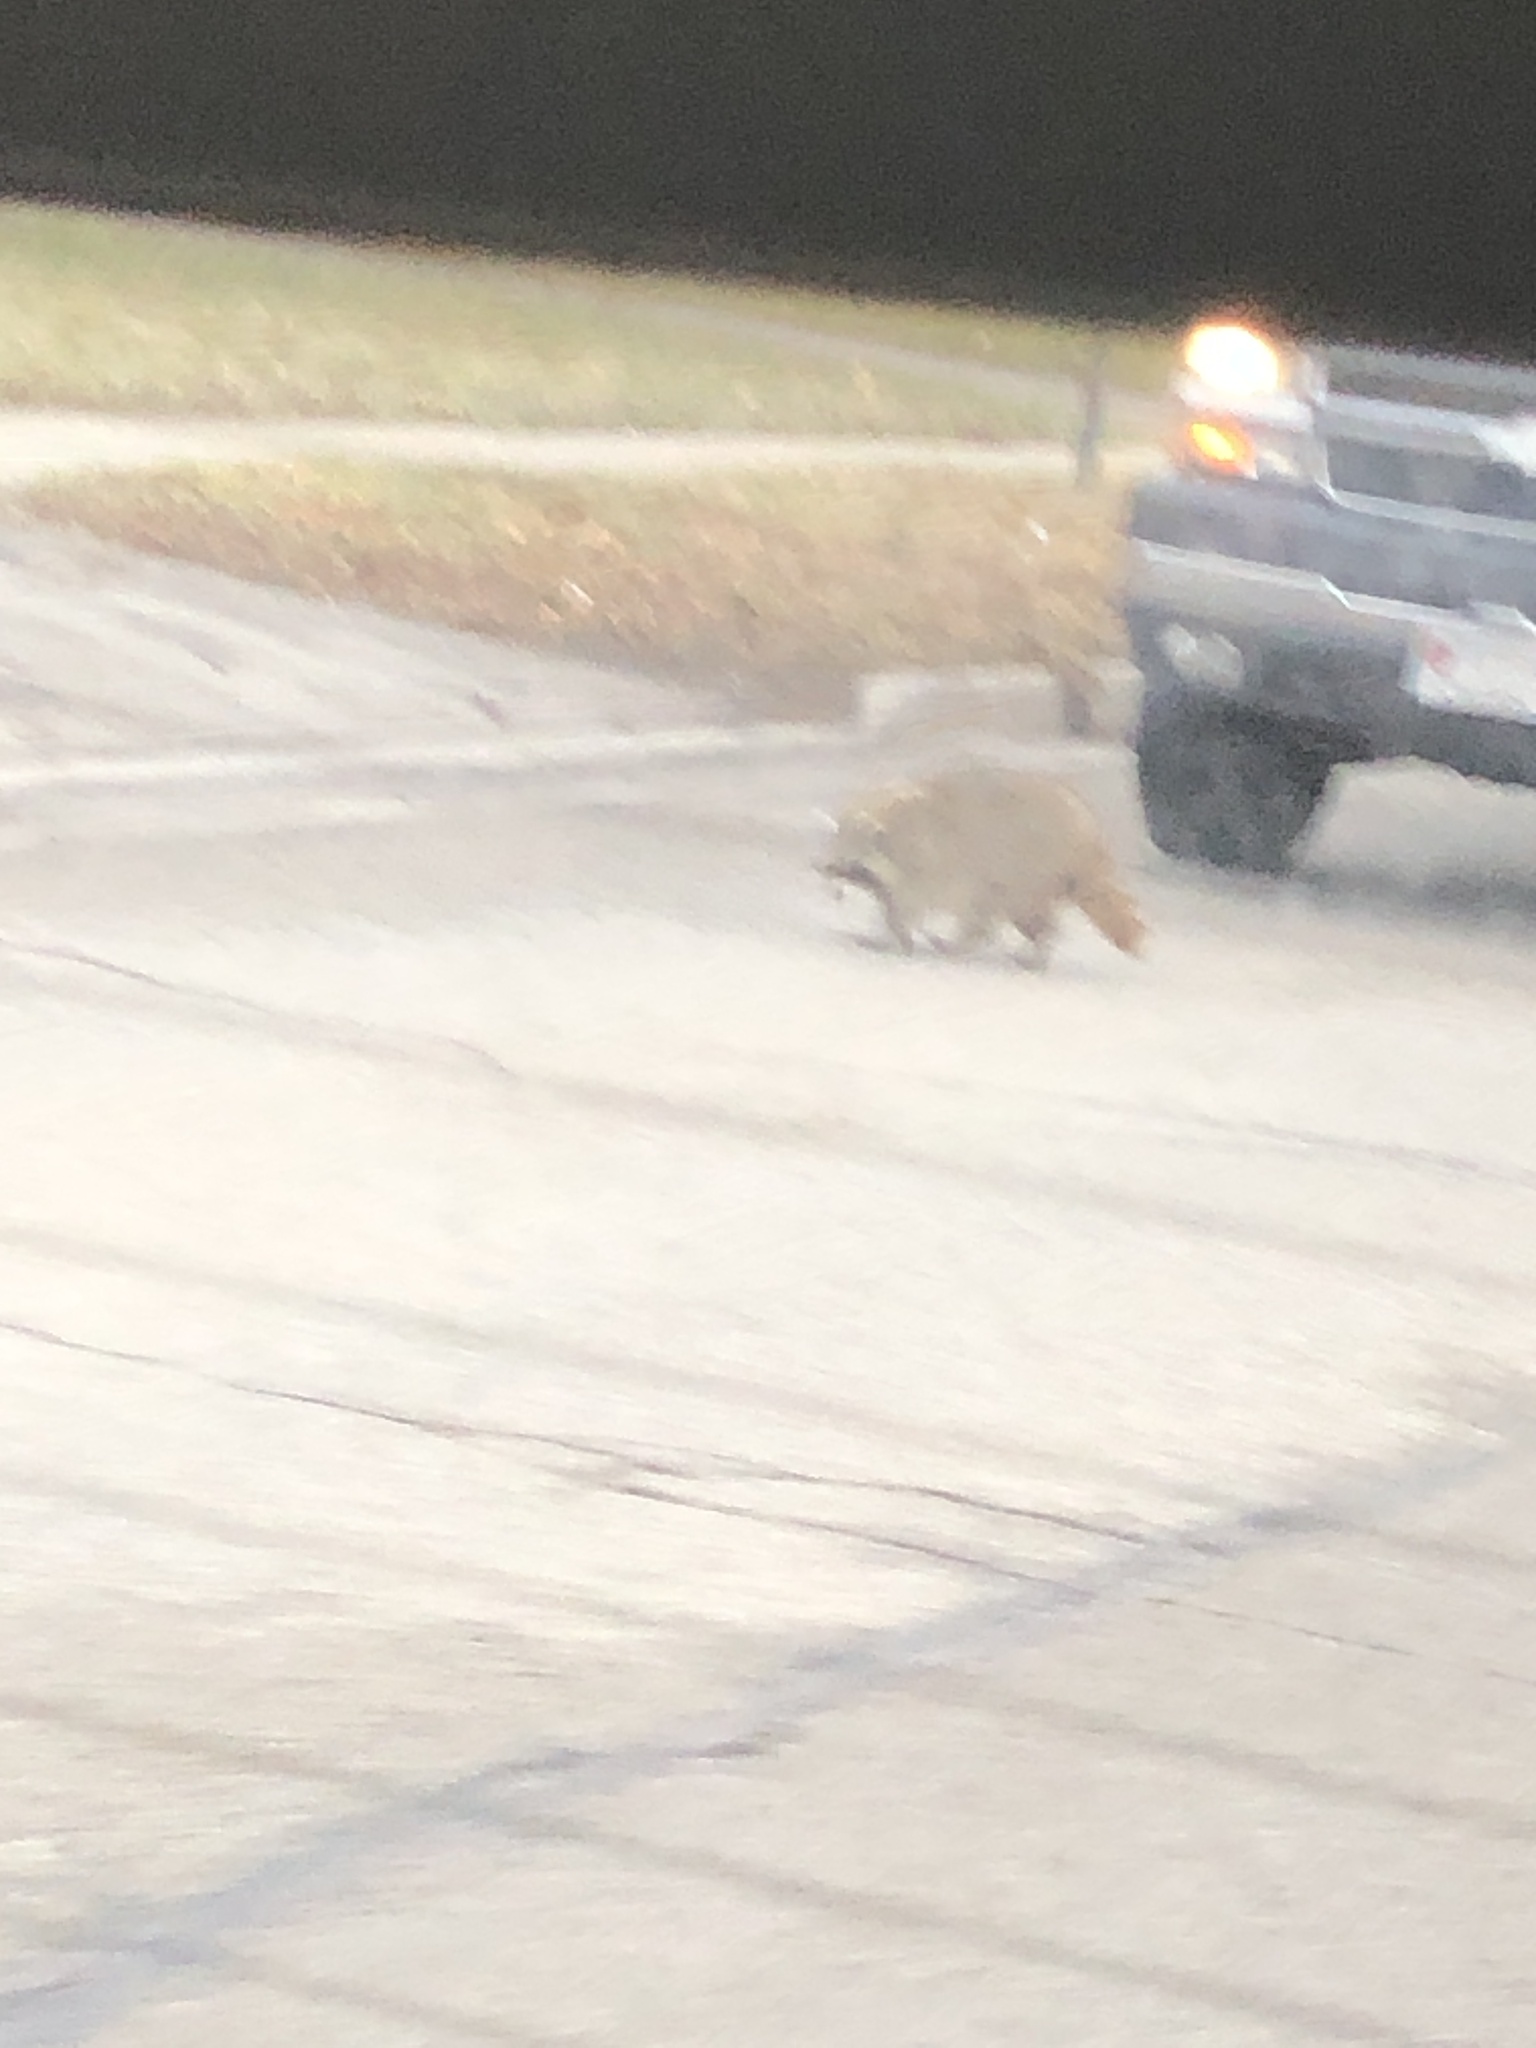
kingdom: Animalia
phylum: Chordata
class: Mammalia
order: Carnivora
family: Procyonidae
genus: Procyon
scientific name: Procyon lotor
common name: Raccoon
